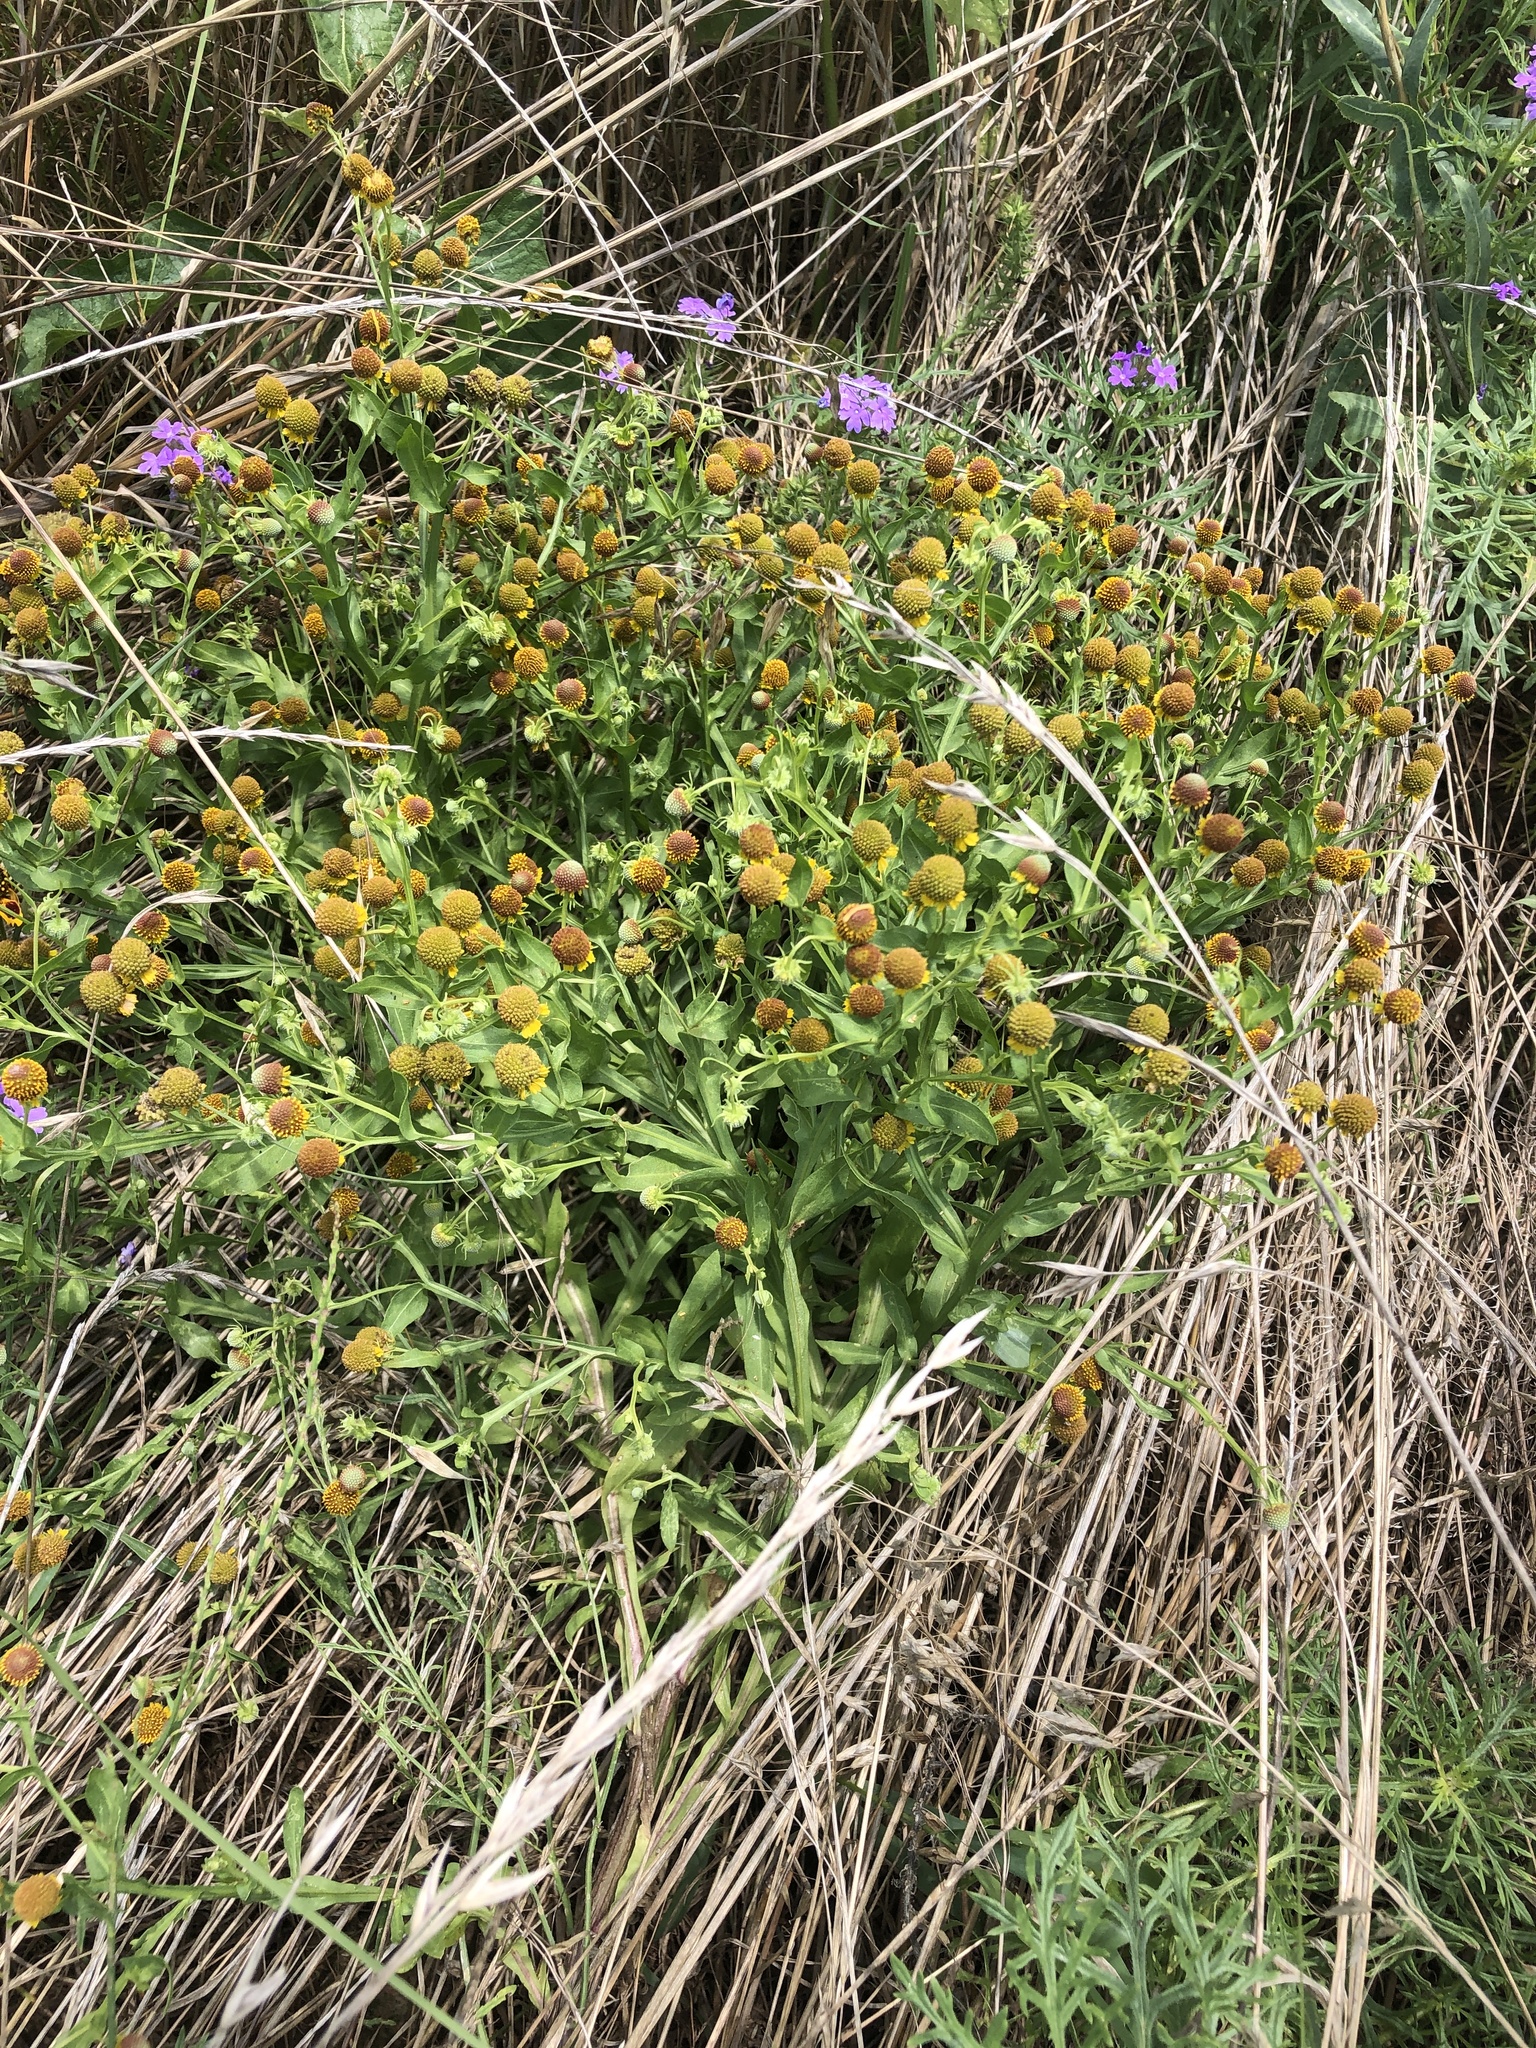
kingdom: Plantae
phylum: Tracheophyta
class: Magnoliopsida
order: Asterales
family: Asteraceae
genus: Helenium
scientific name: Helenium microcephalum
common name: Smallhead sneezeweed
